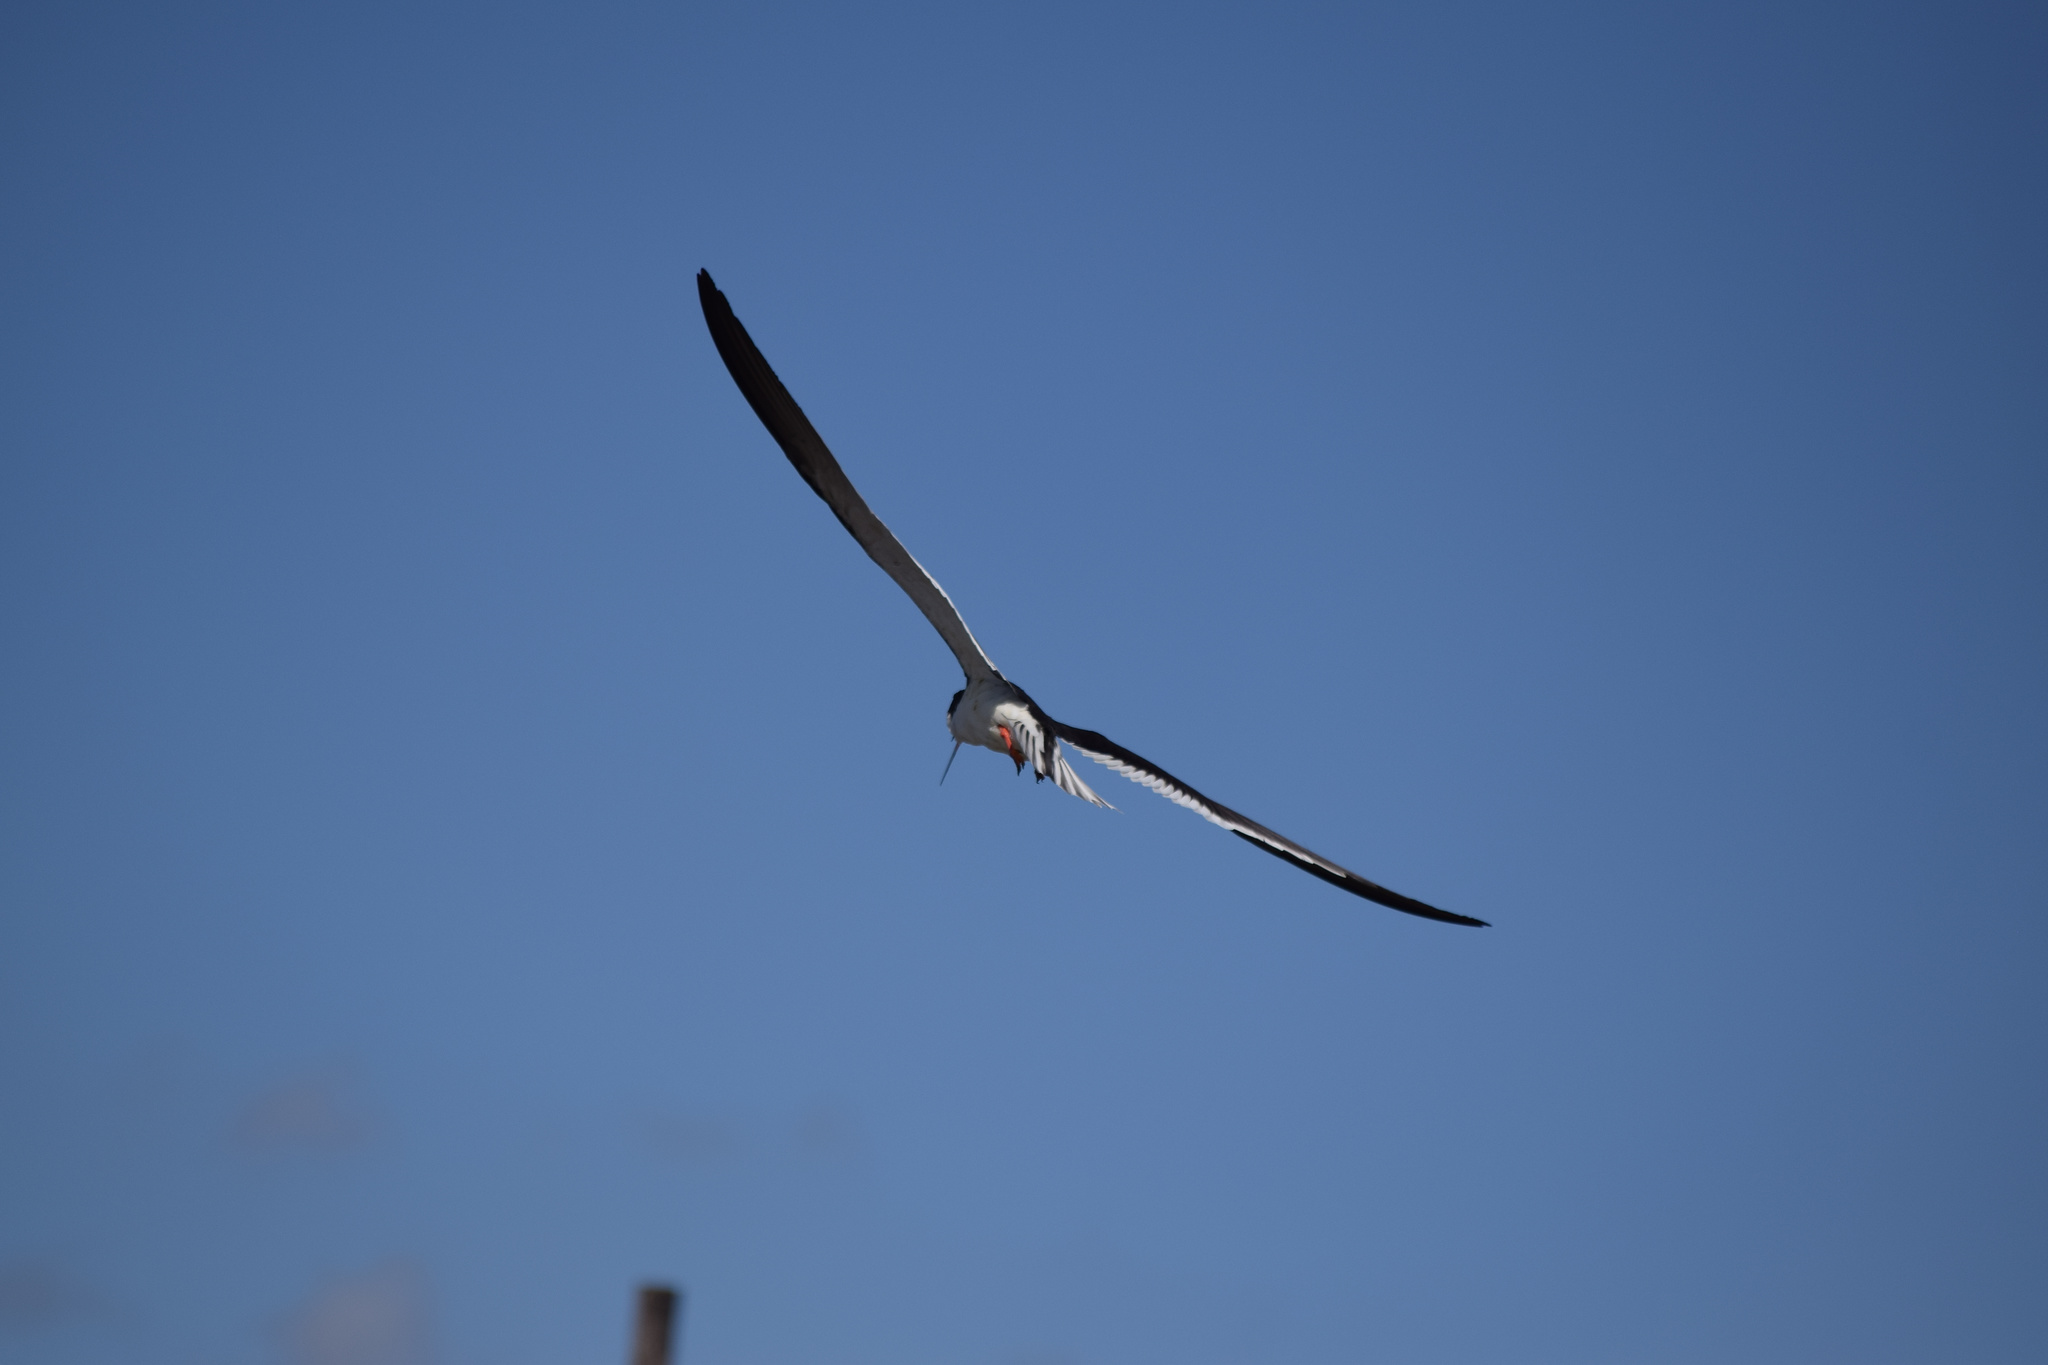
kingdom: Animalia
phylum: Chordata
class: Aves
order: Charadriiformes
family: Laridae
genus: Rynchops
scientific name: Rynchops niger
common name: Black skimmer
